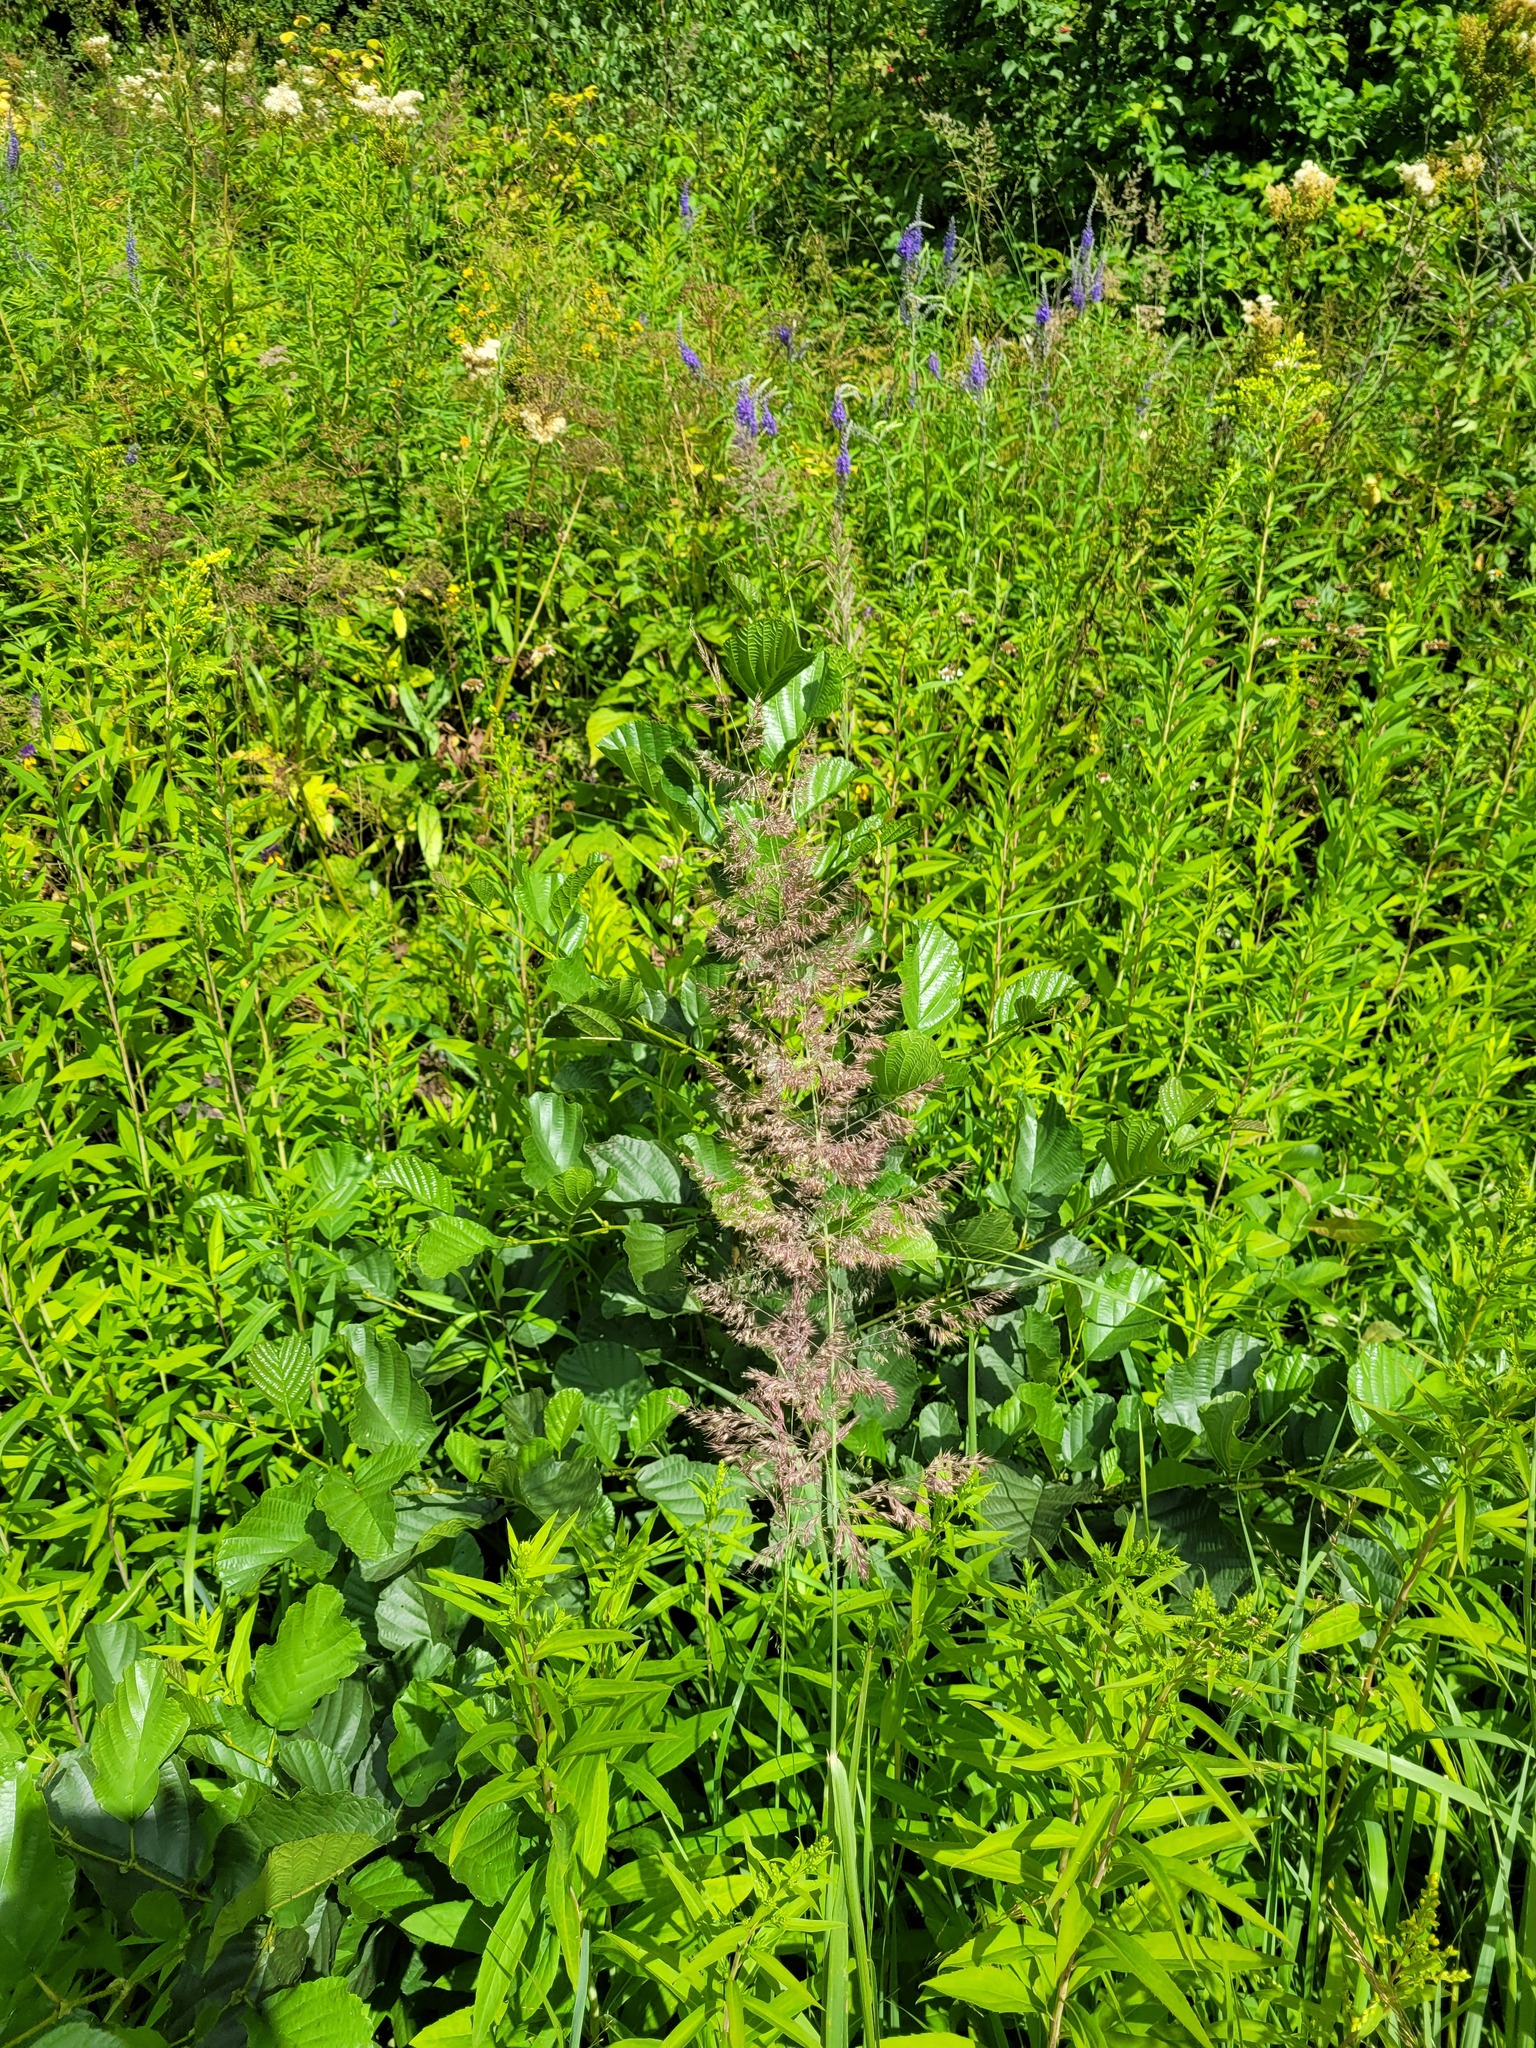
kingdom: Plantae
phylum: Tracheophyta
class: Magnoliopsida
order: Fagales
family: Betulaceae
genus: Alnus
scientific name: Alnus glutinosa
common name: Black alder
